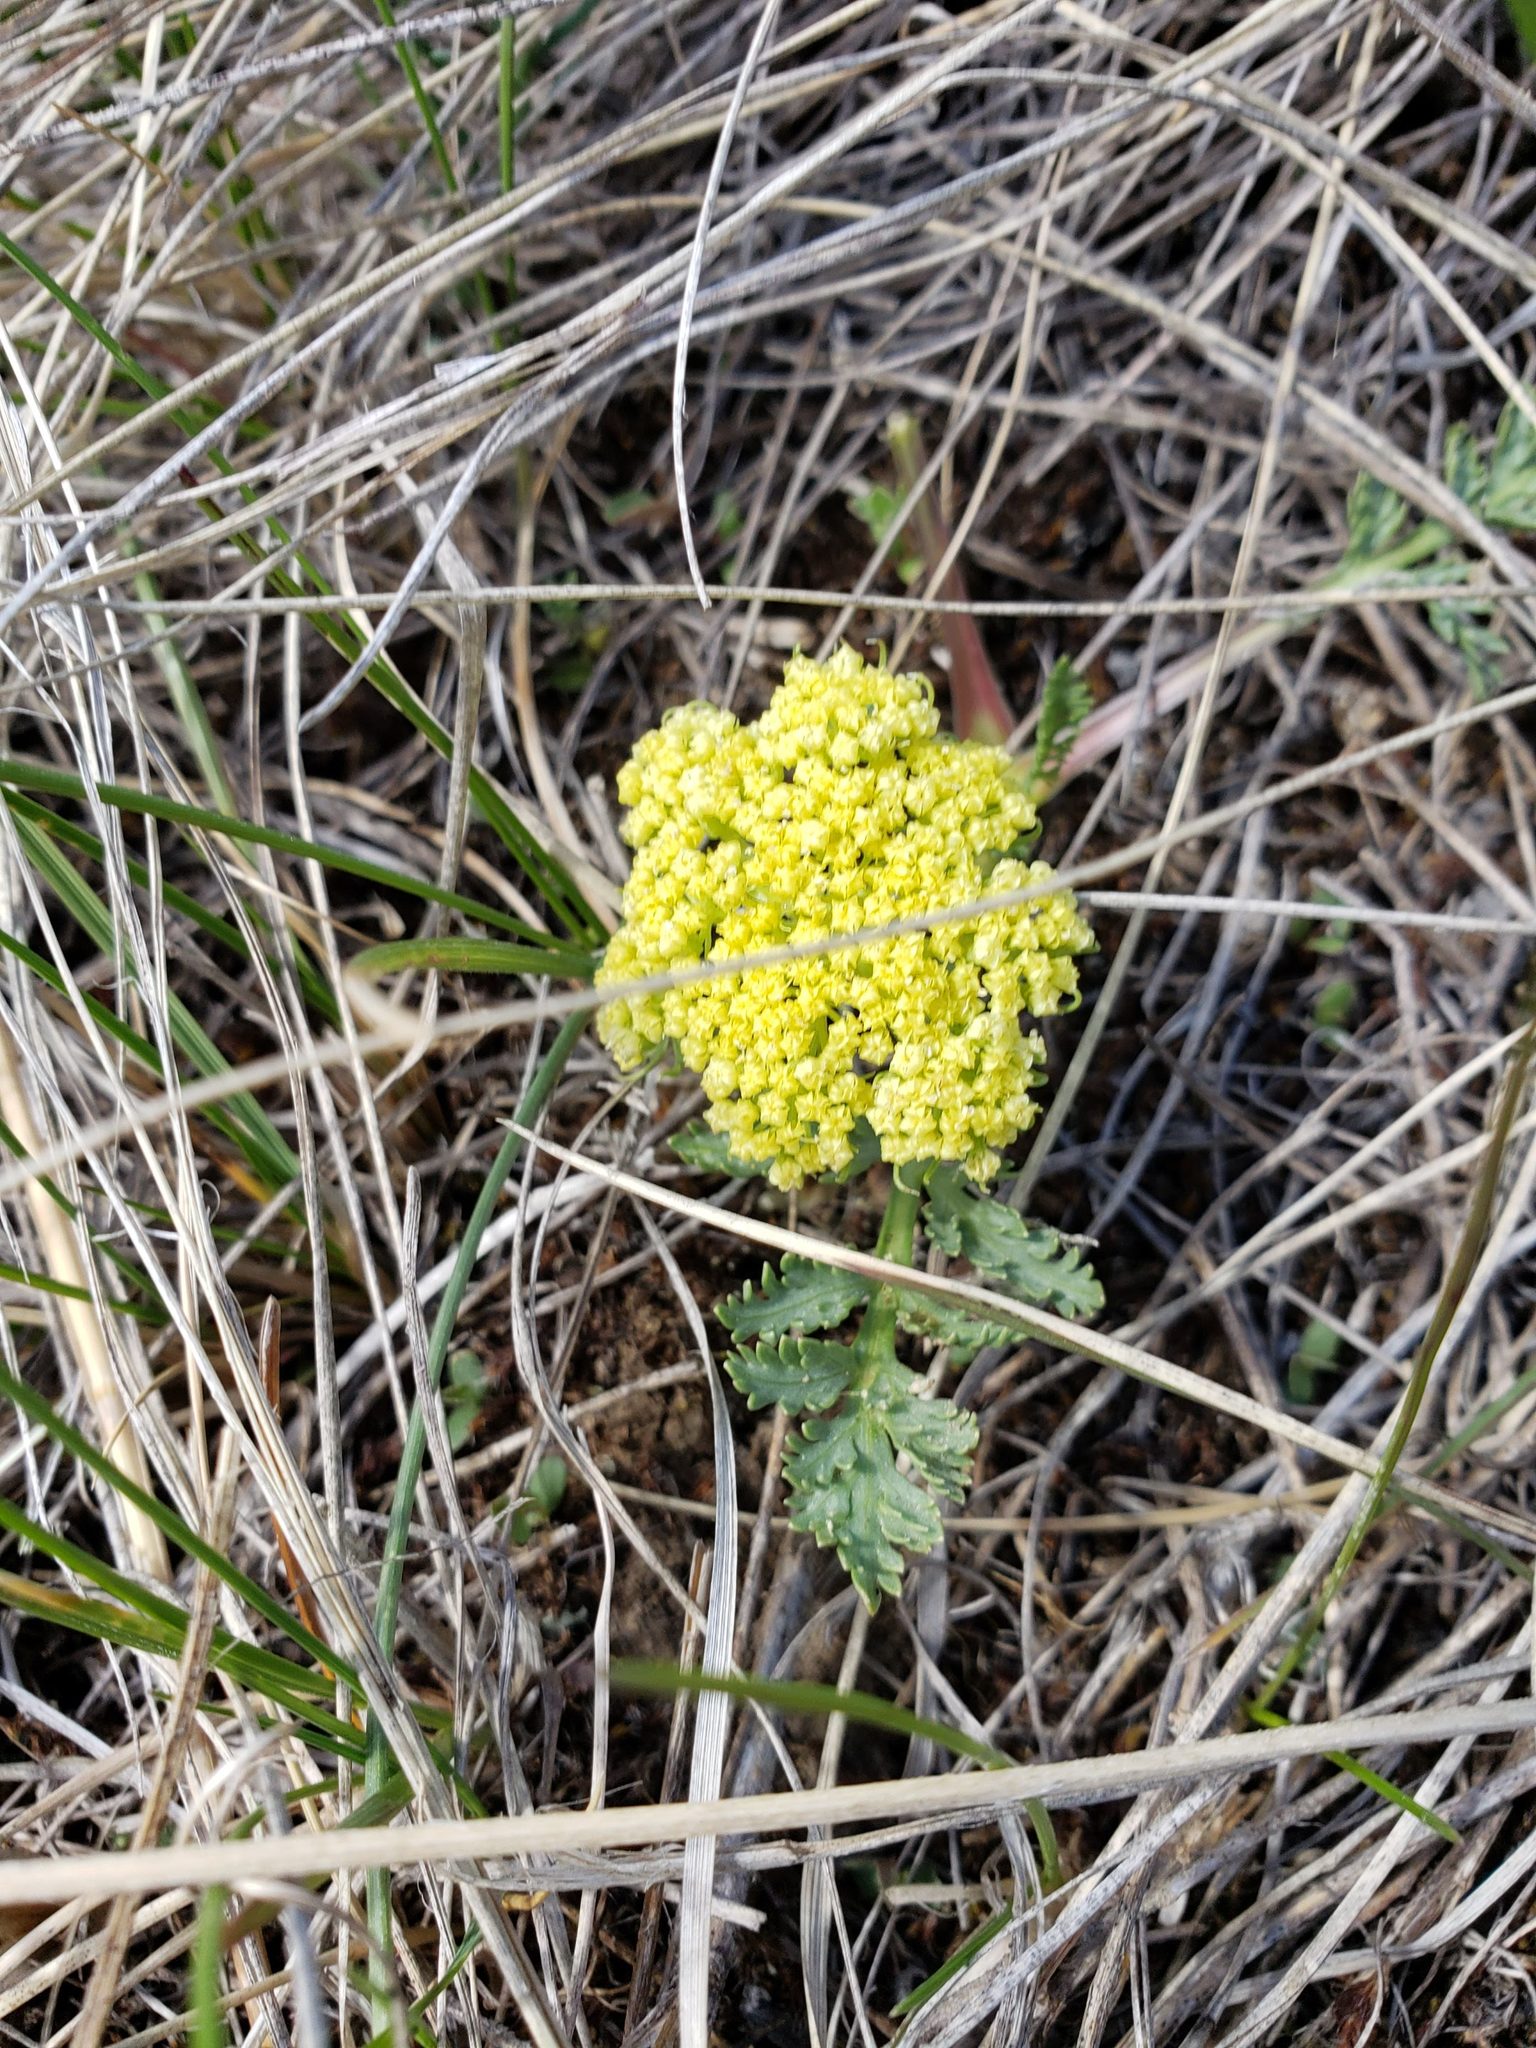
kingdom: Plantae
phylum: Tracheophyta
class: Magnoliopsida
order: Apiales
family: Apiaceae
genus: Musineon
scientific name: Musineon divaricatum
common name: Plains musineon
